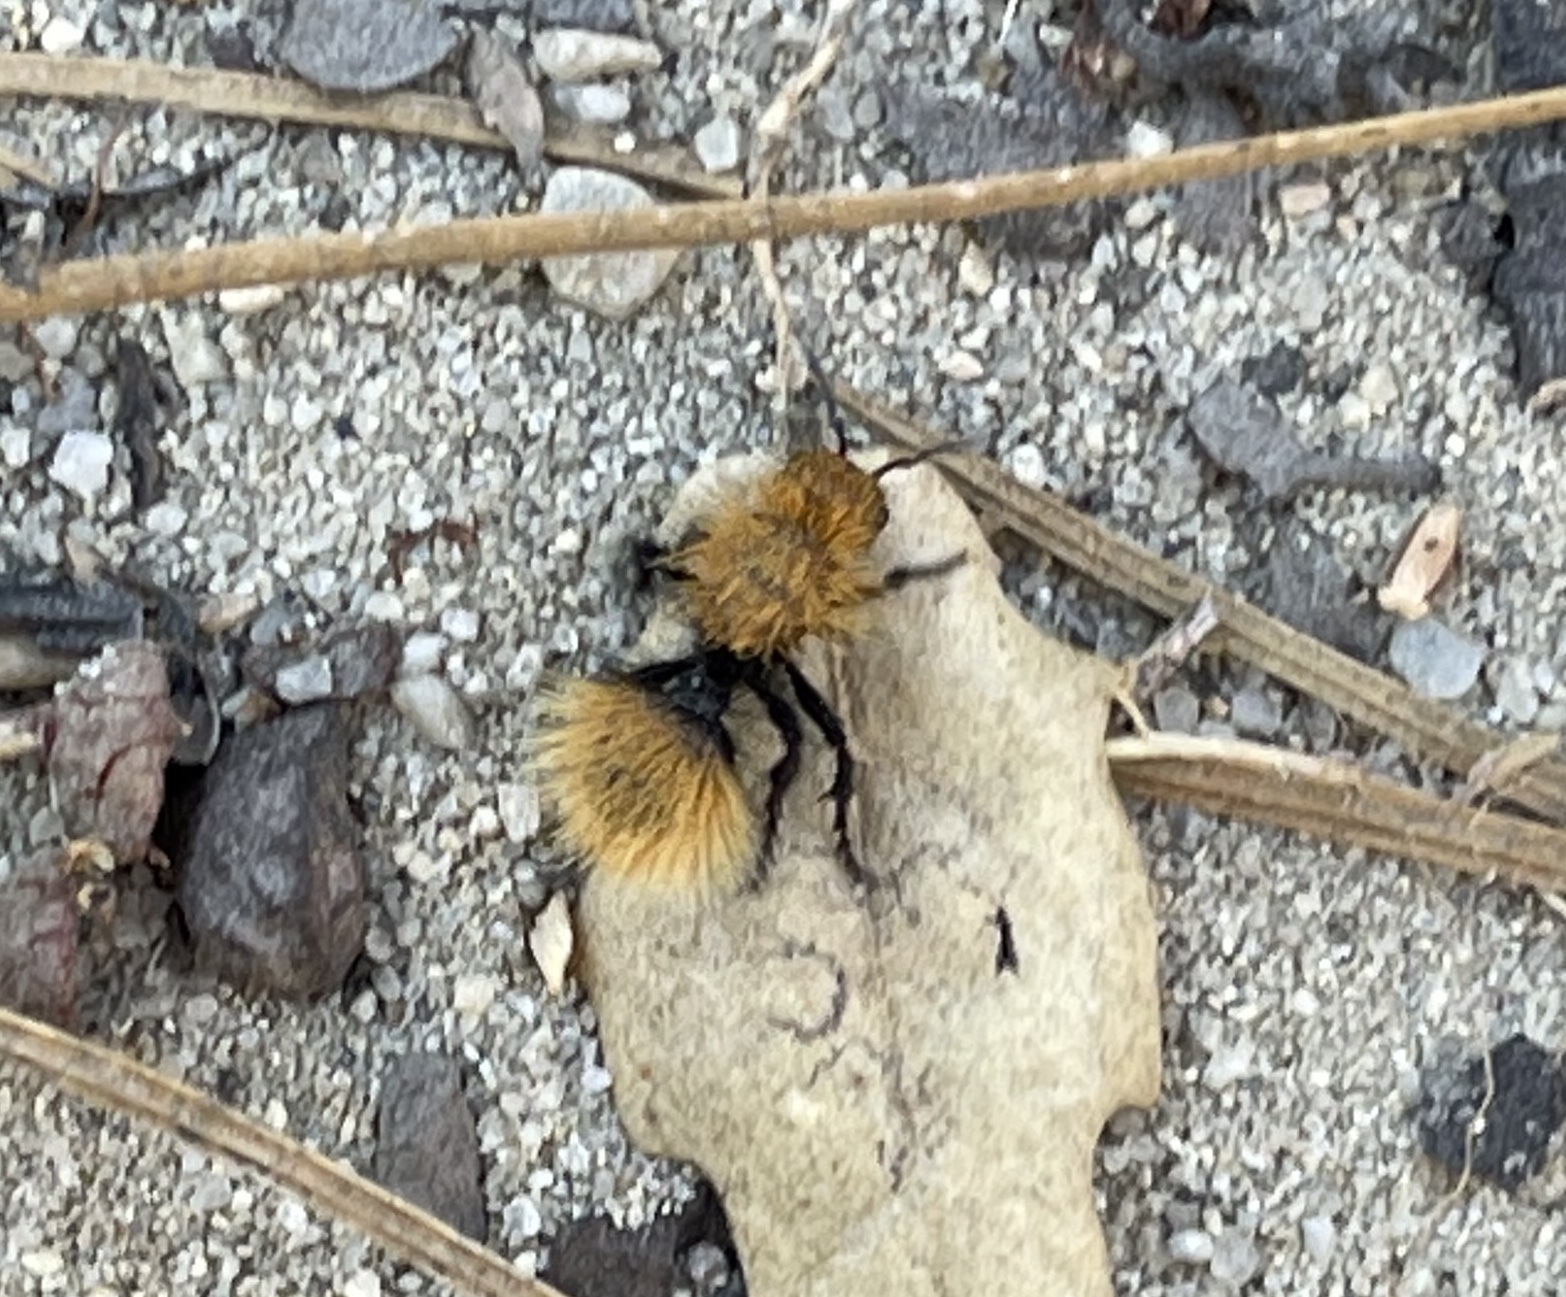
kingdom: Animalia
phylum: Arthropoda
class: Insecta
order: Hymenoptera
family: Mutillidae
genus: Dasymutilla
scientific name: Dasymutilla
